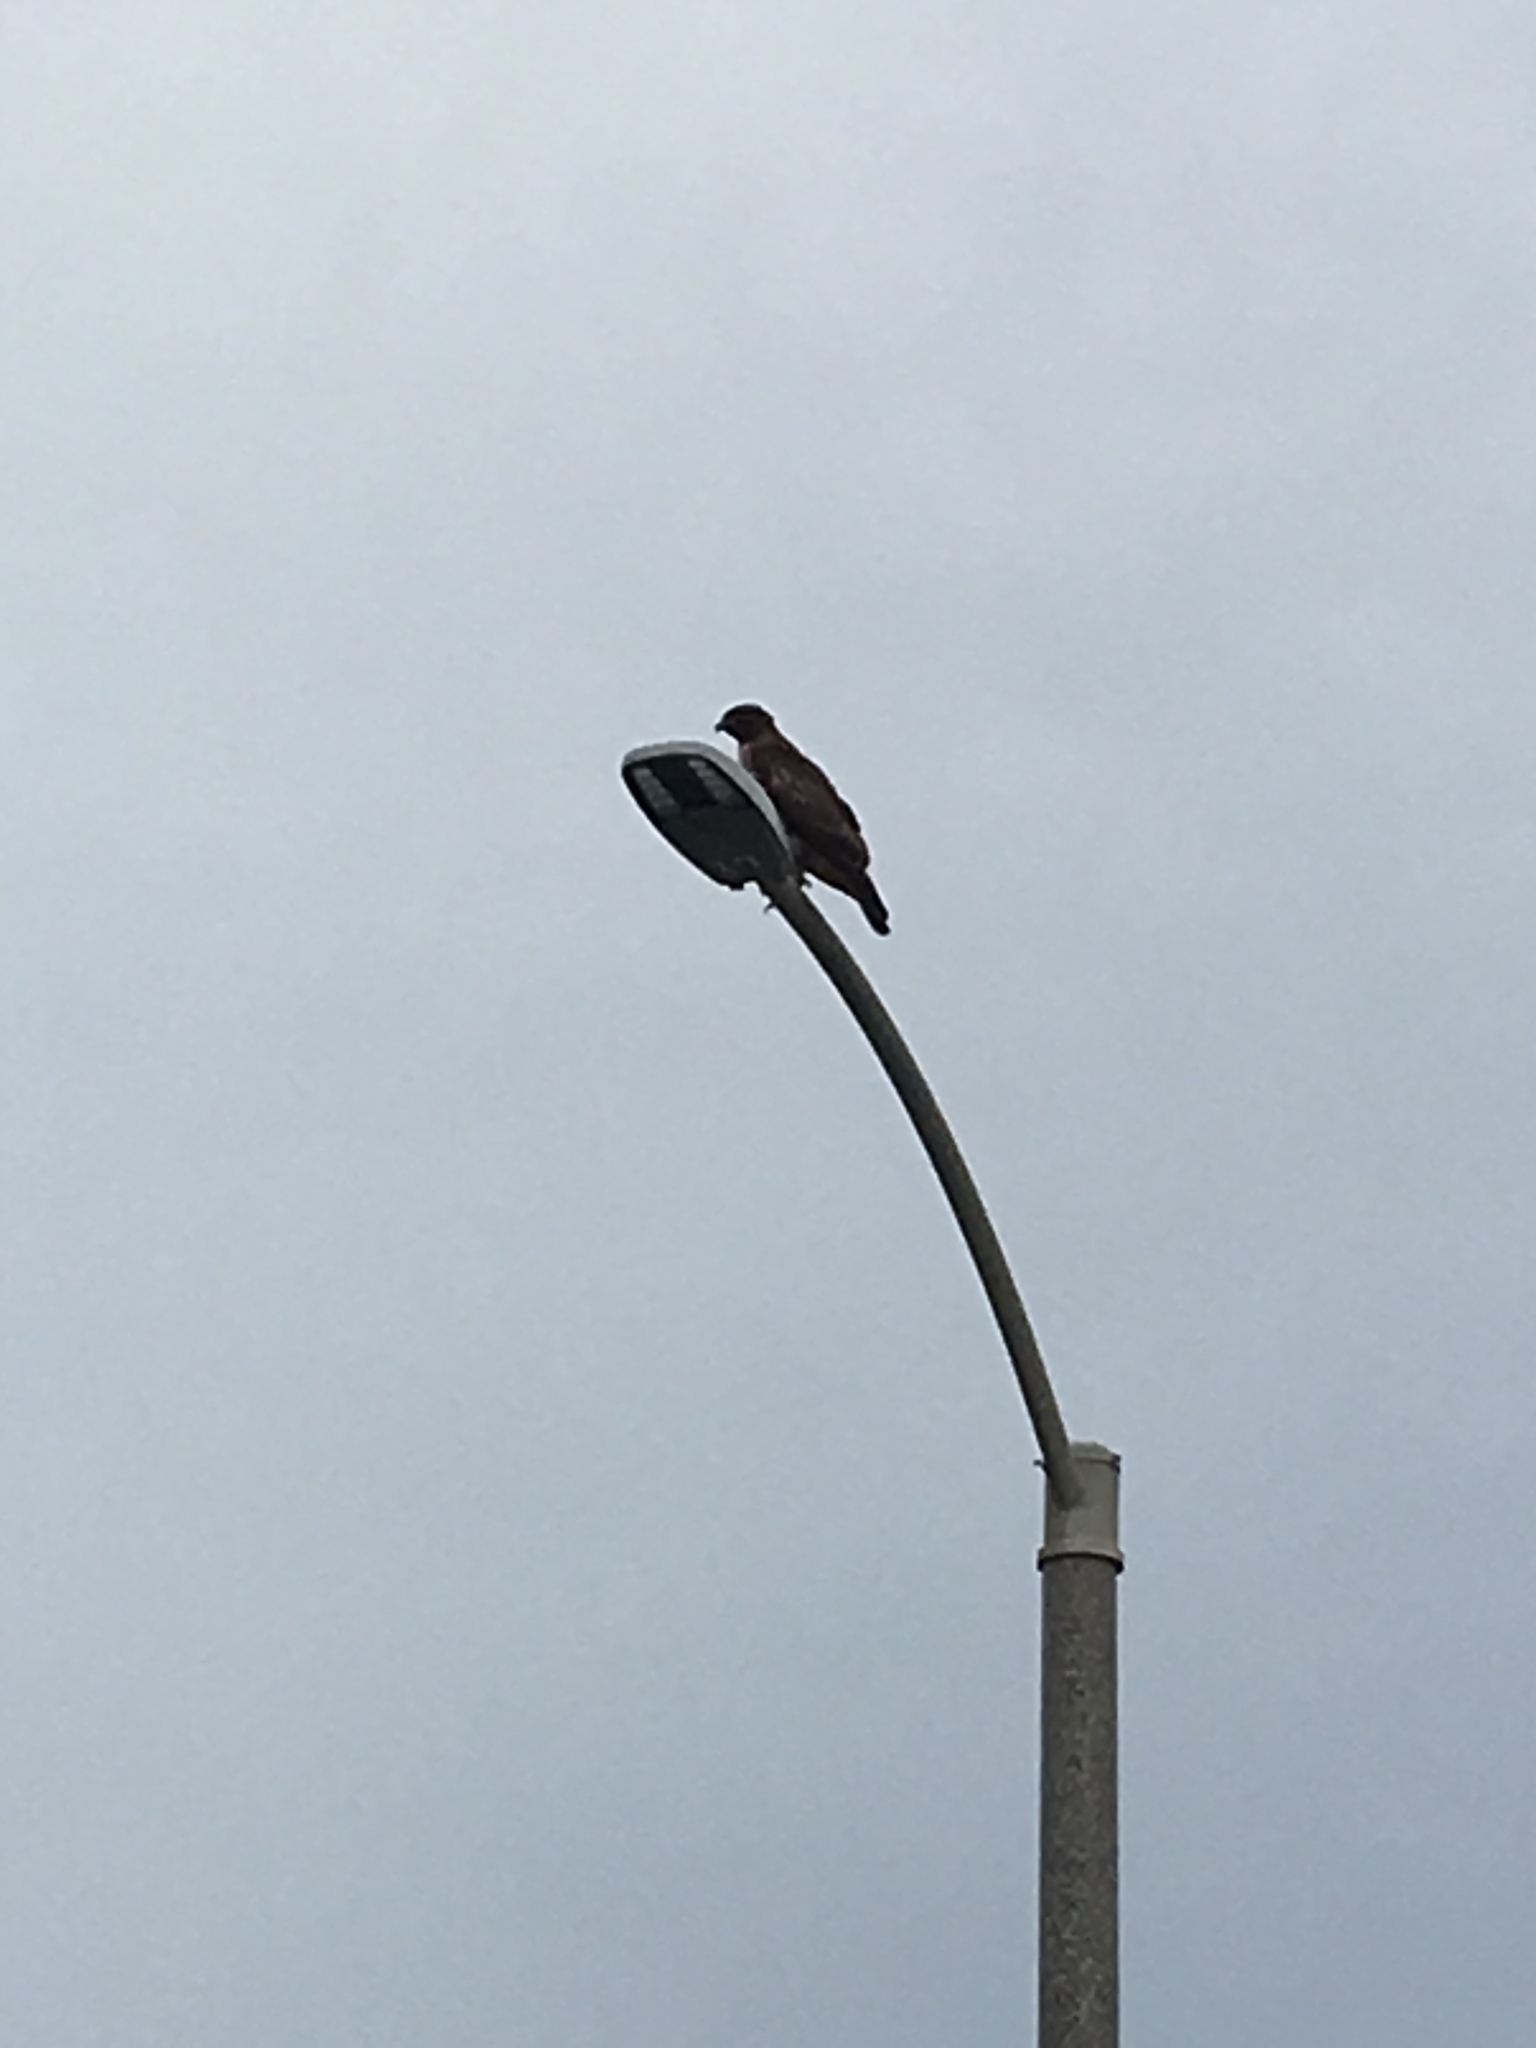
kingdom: Animalia
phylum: Chordata
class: Aves
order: Accipitriformes
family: Accipitridae
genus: Buteo
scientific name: Buteo jamaicensis
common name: Red-tailed hawk
